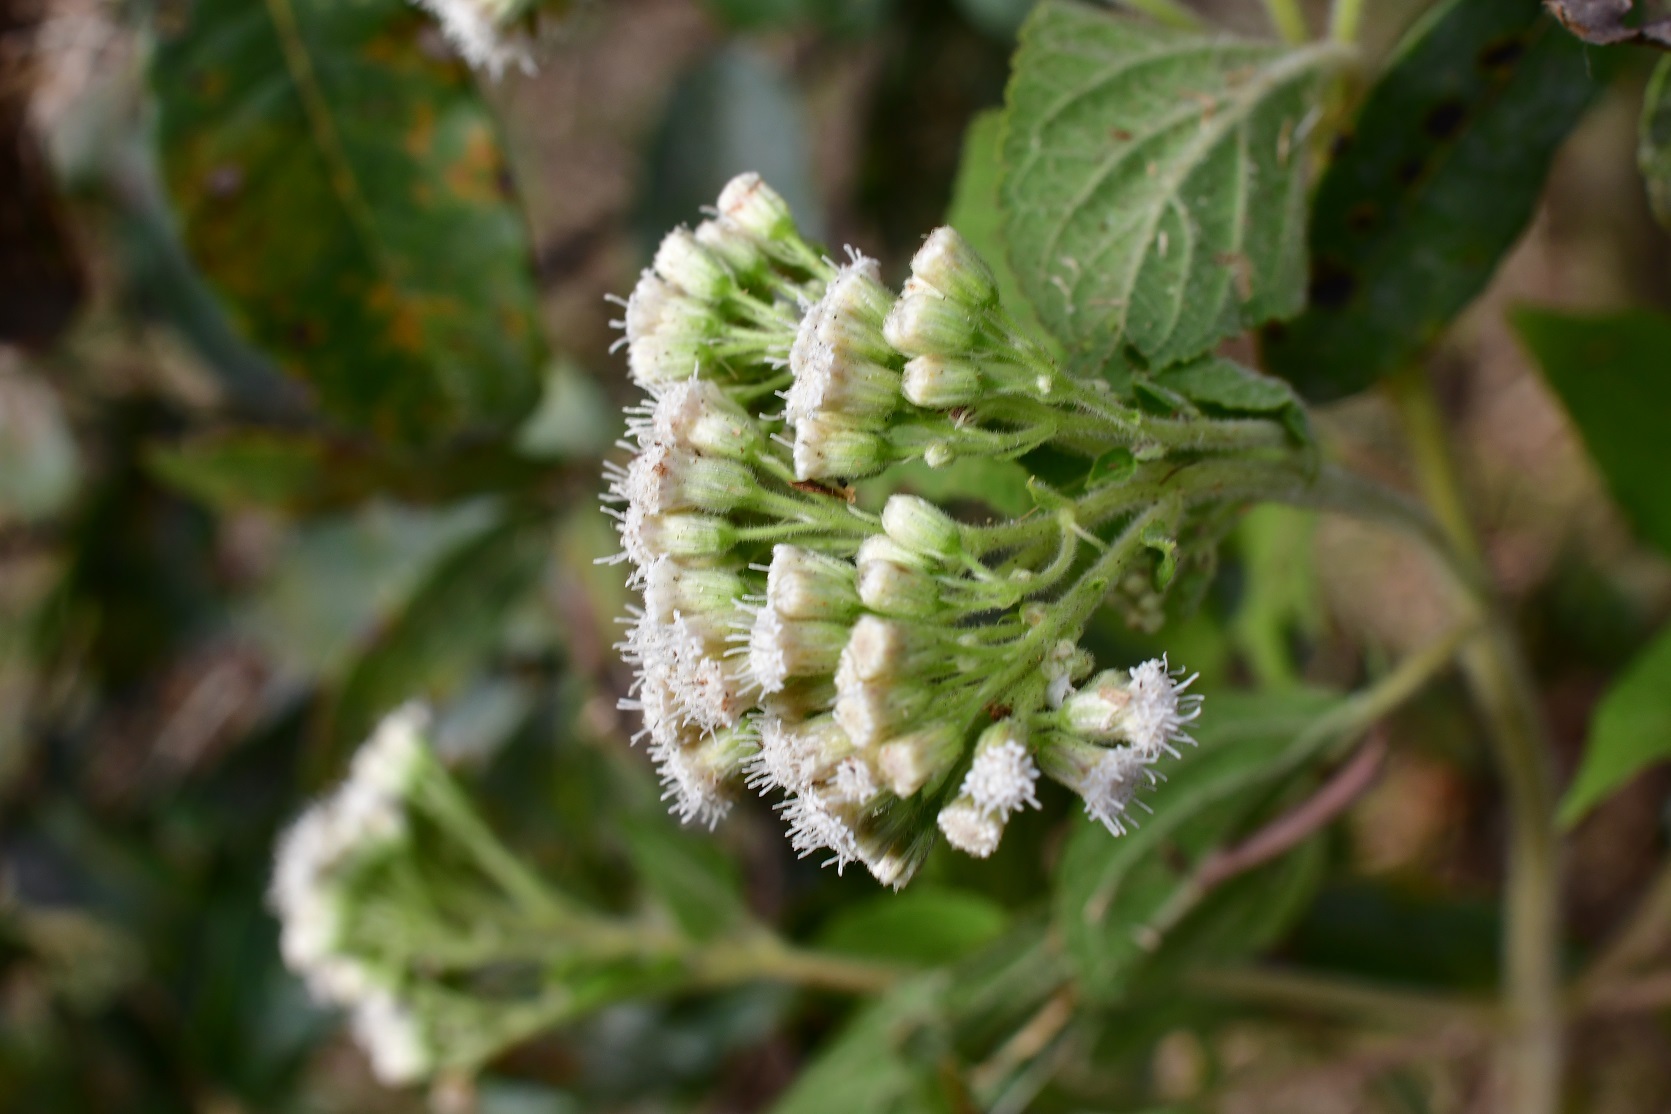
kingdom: Plantae
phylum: Tracheophyta
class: Magnoliopsida
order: Asterales
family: Asteraceae
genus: Ageratina
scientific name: Ageratina adenophora
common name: Sticky snakeroot
